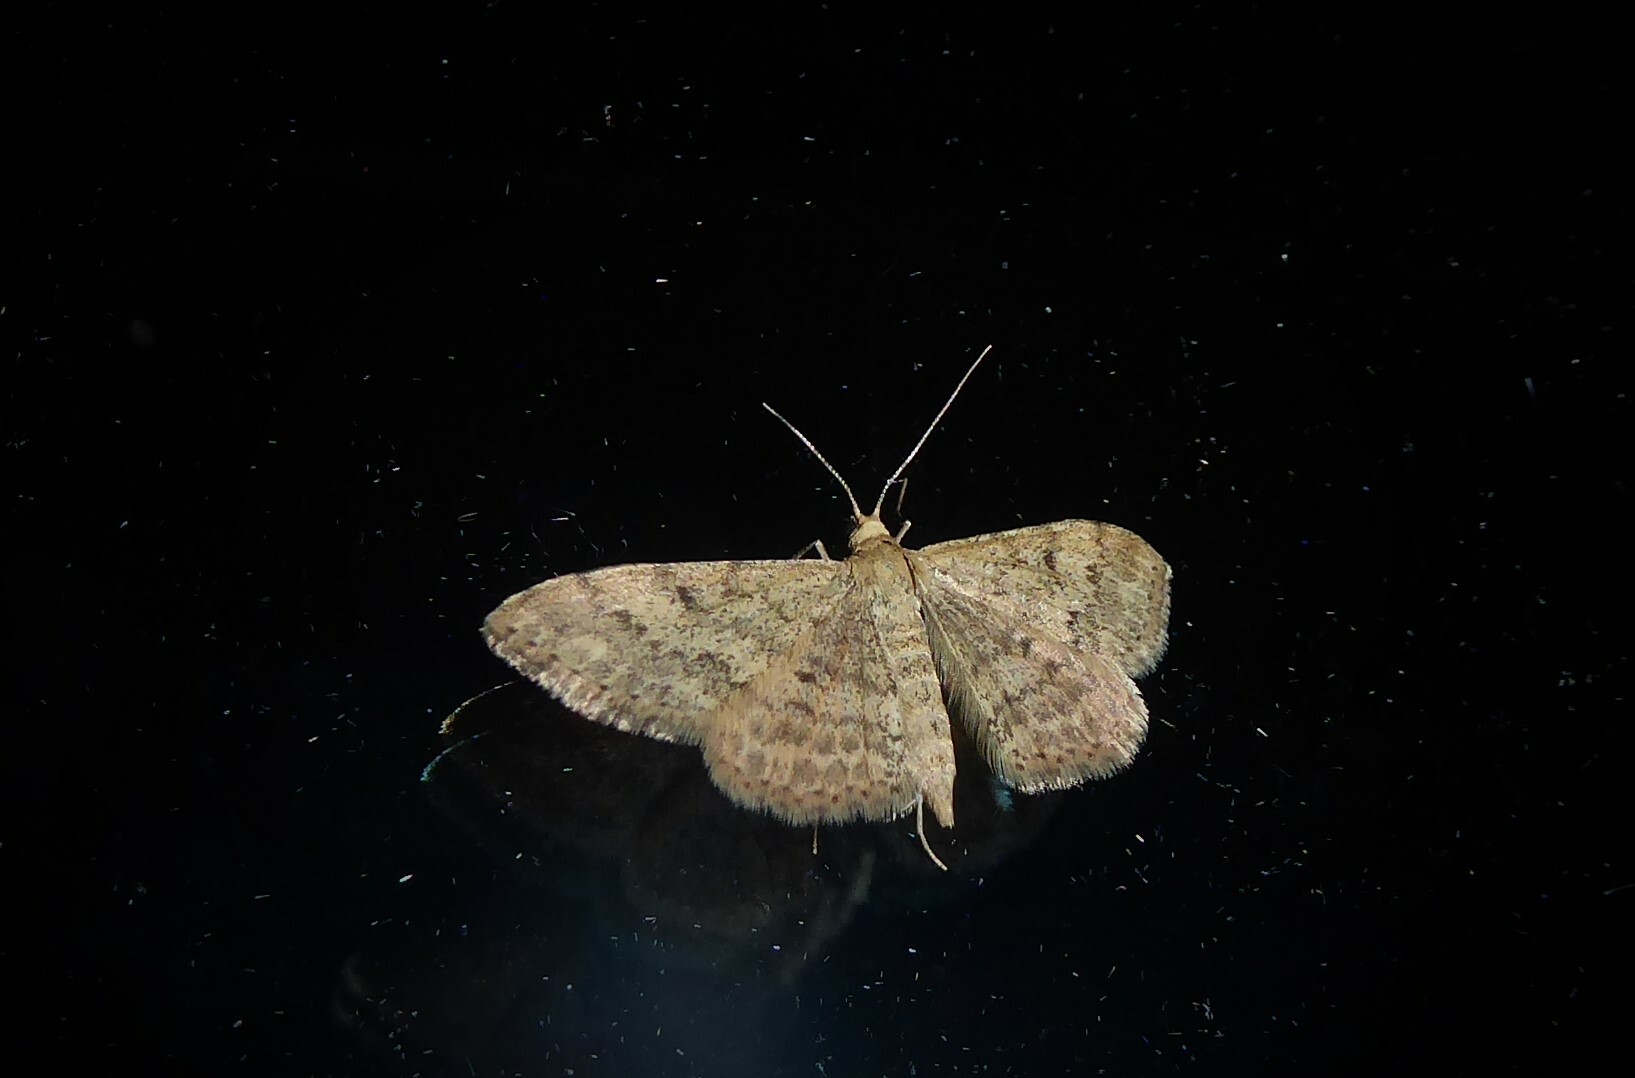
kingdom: Animalia
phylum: Arthropoda
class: Insecta
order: Lepidoptera
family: Geometridae
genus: Scopula
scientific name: Scopula rubraria
